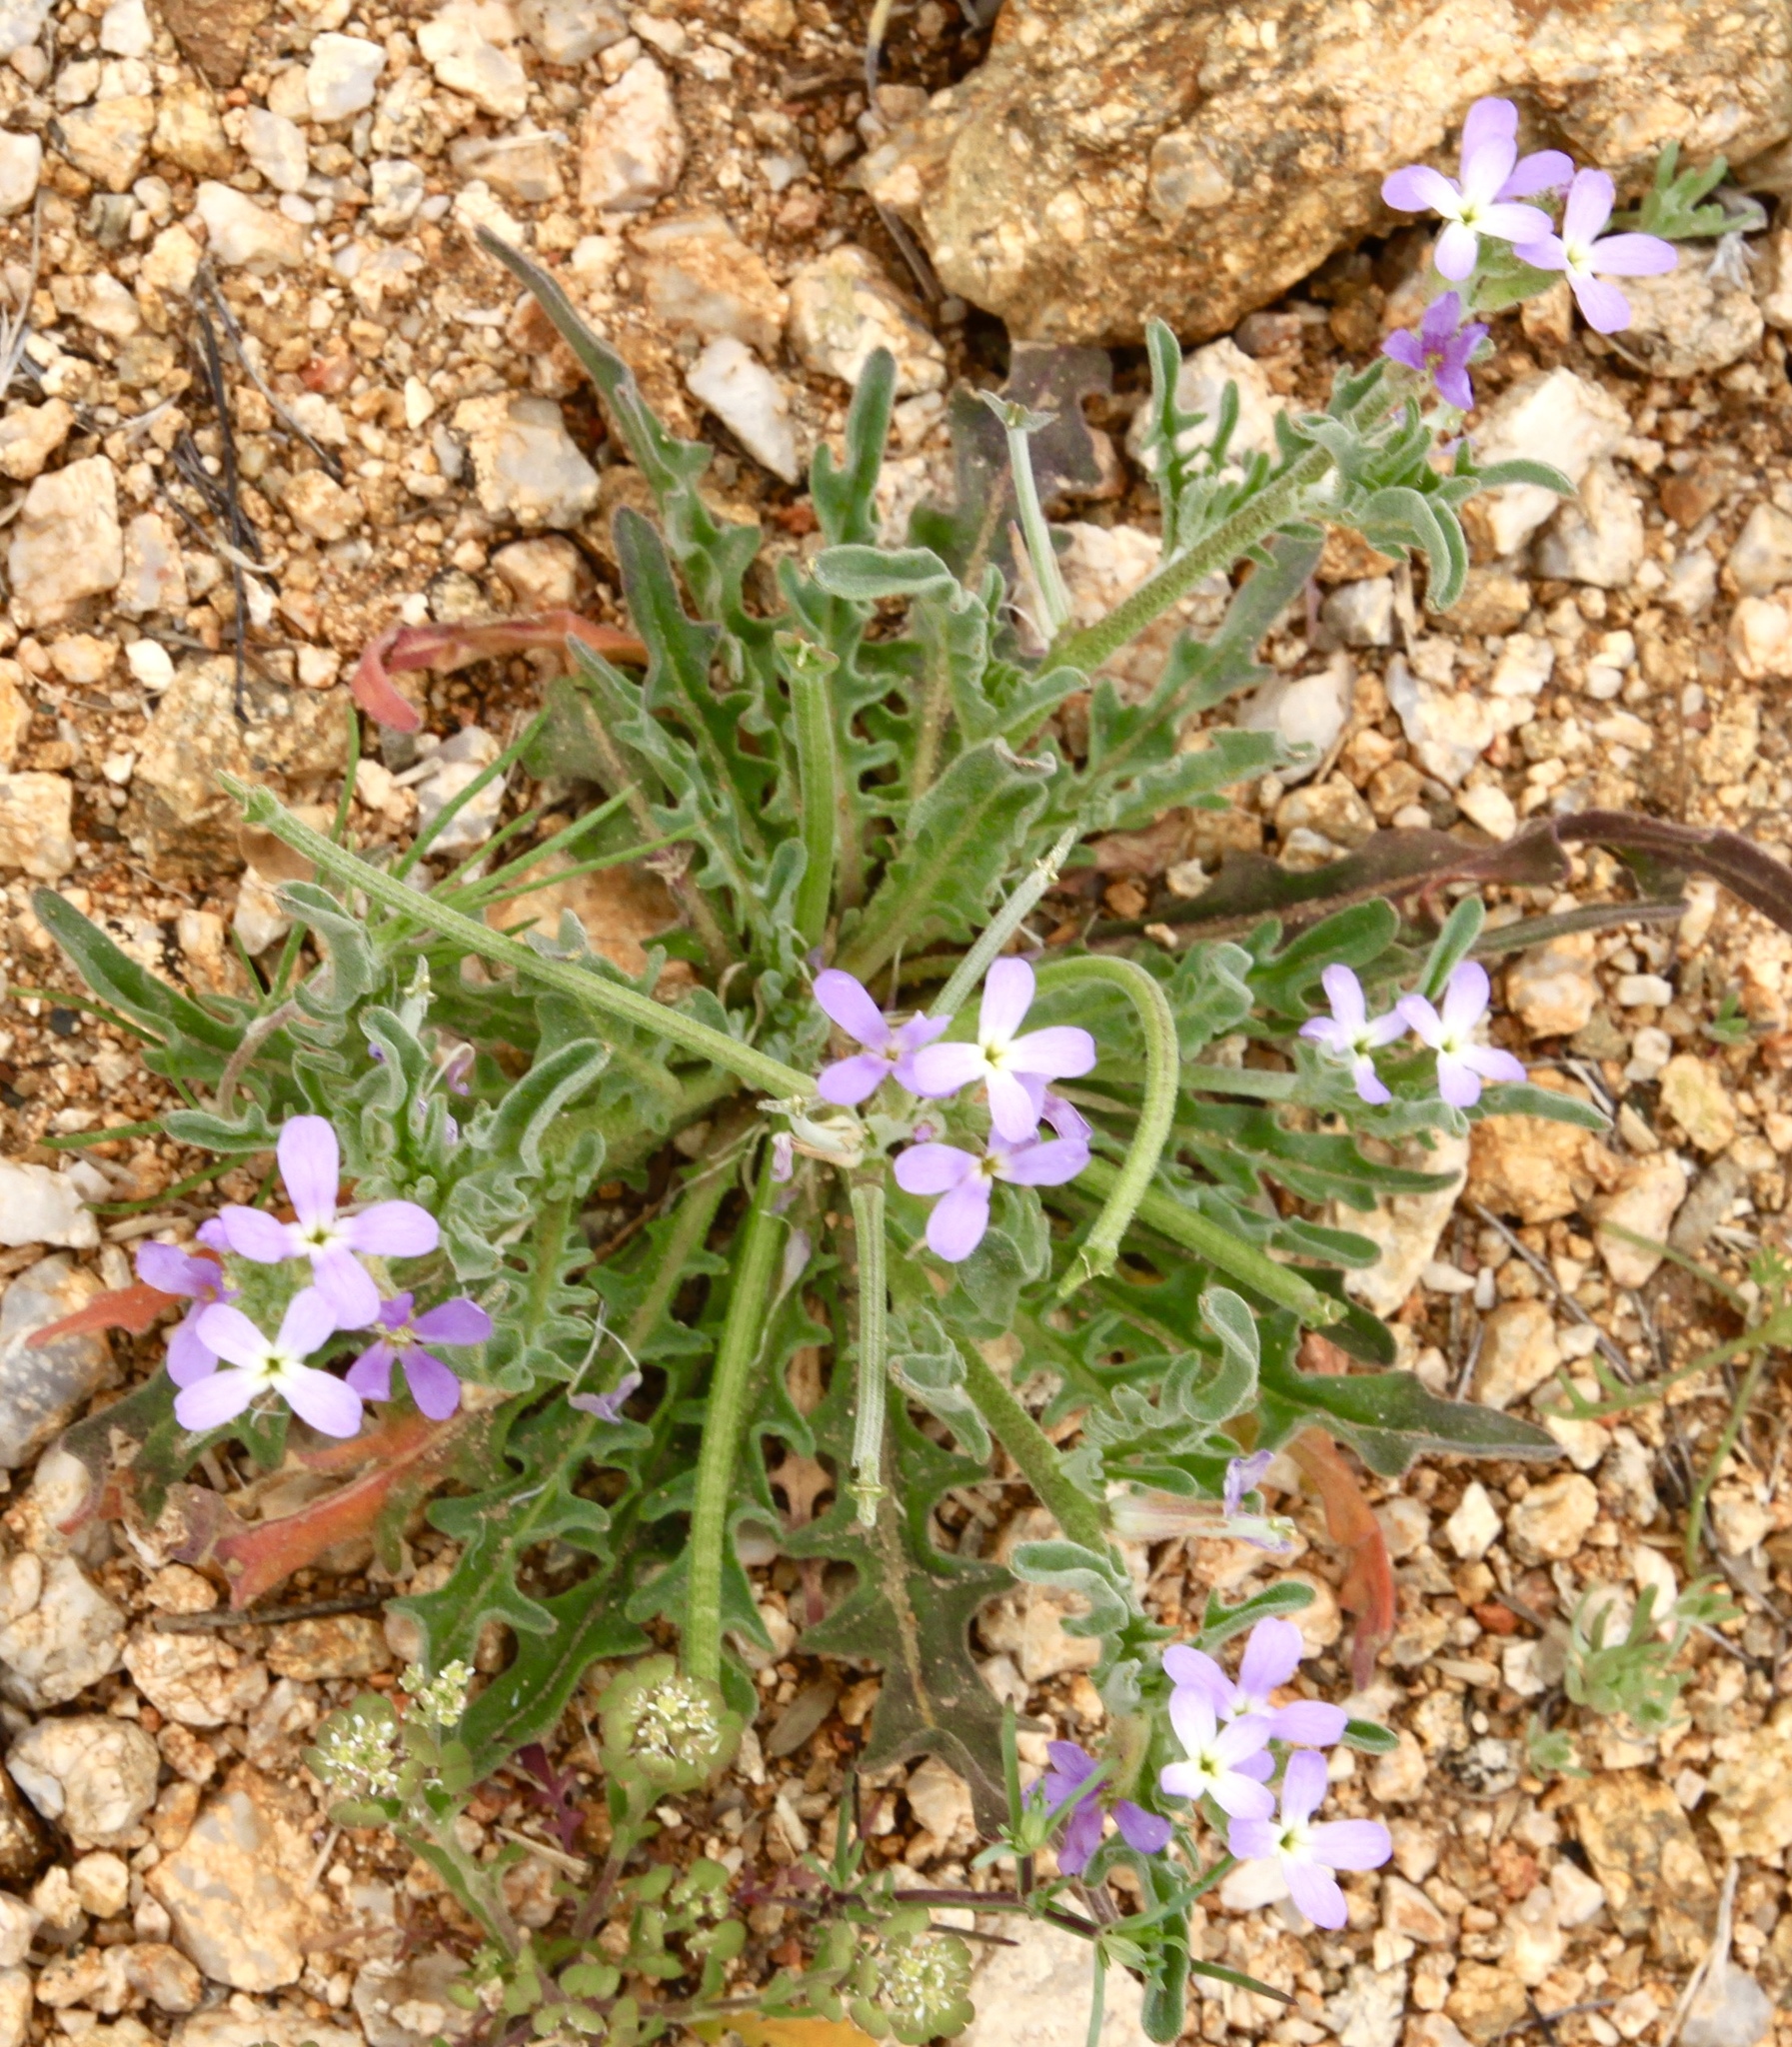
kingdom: Plantae
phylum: Tracheophyta
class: Magnoliopsida
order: Brassicales
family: Brassicaceae
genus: Matthiola
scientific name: Matthiola parviflora
